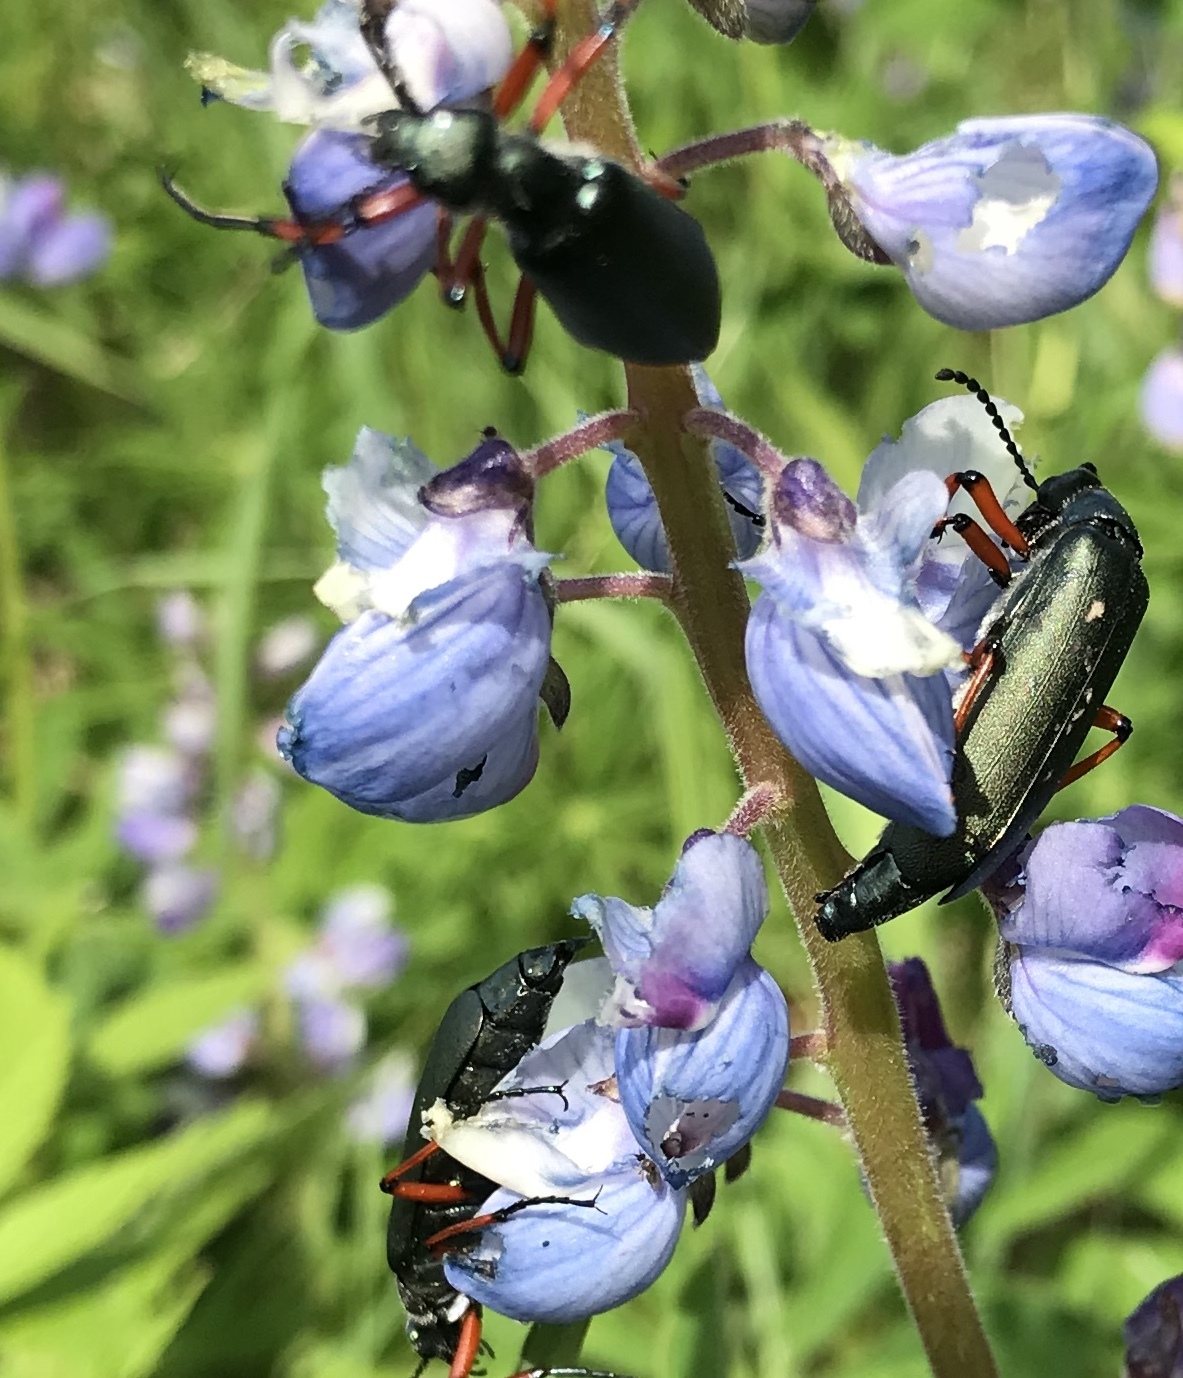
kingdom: Animalia
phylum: Arthropoda
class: Insecta
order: Coleoptera
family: Meloidae
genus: Lytta
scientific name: Lytta sayi
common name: Say's blister beetle
